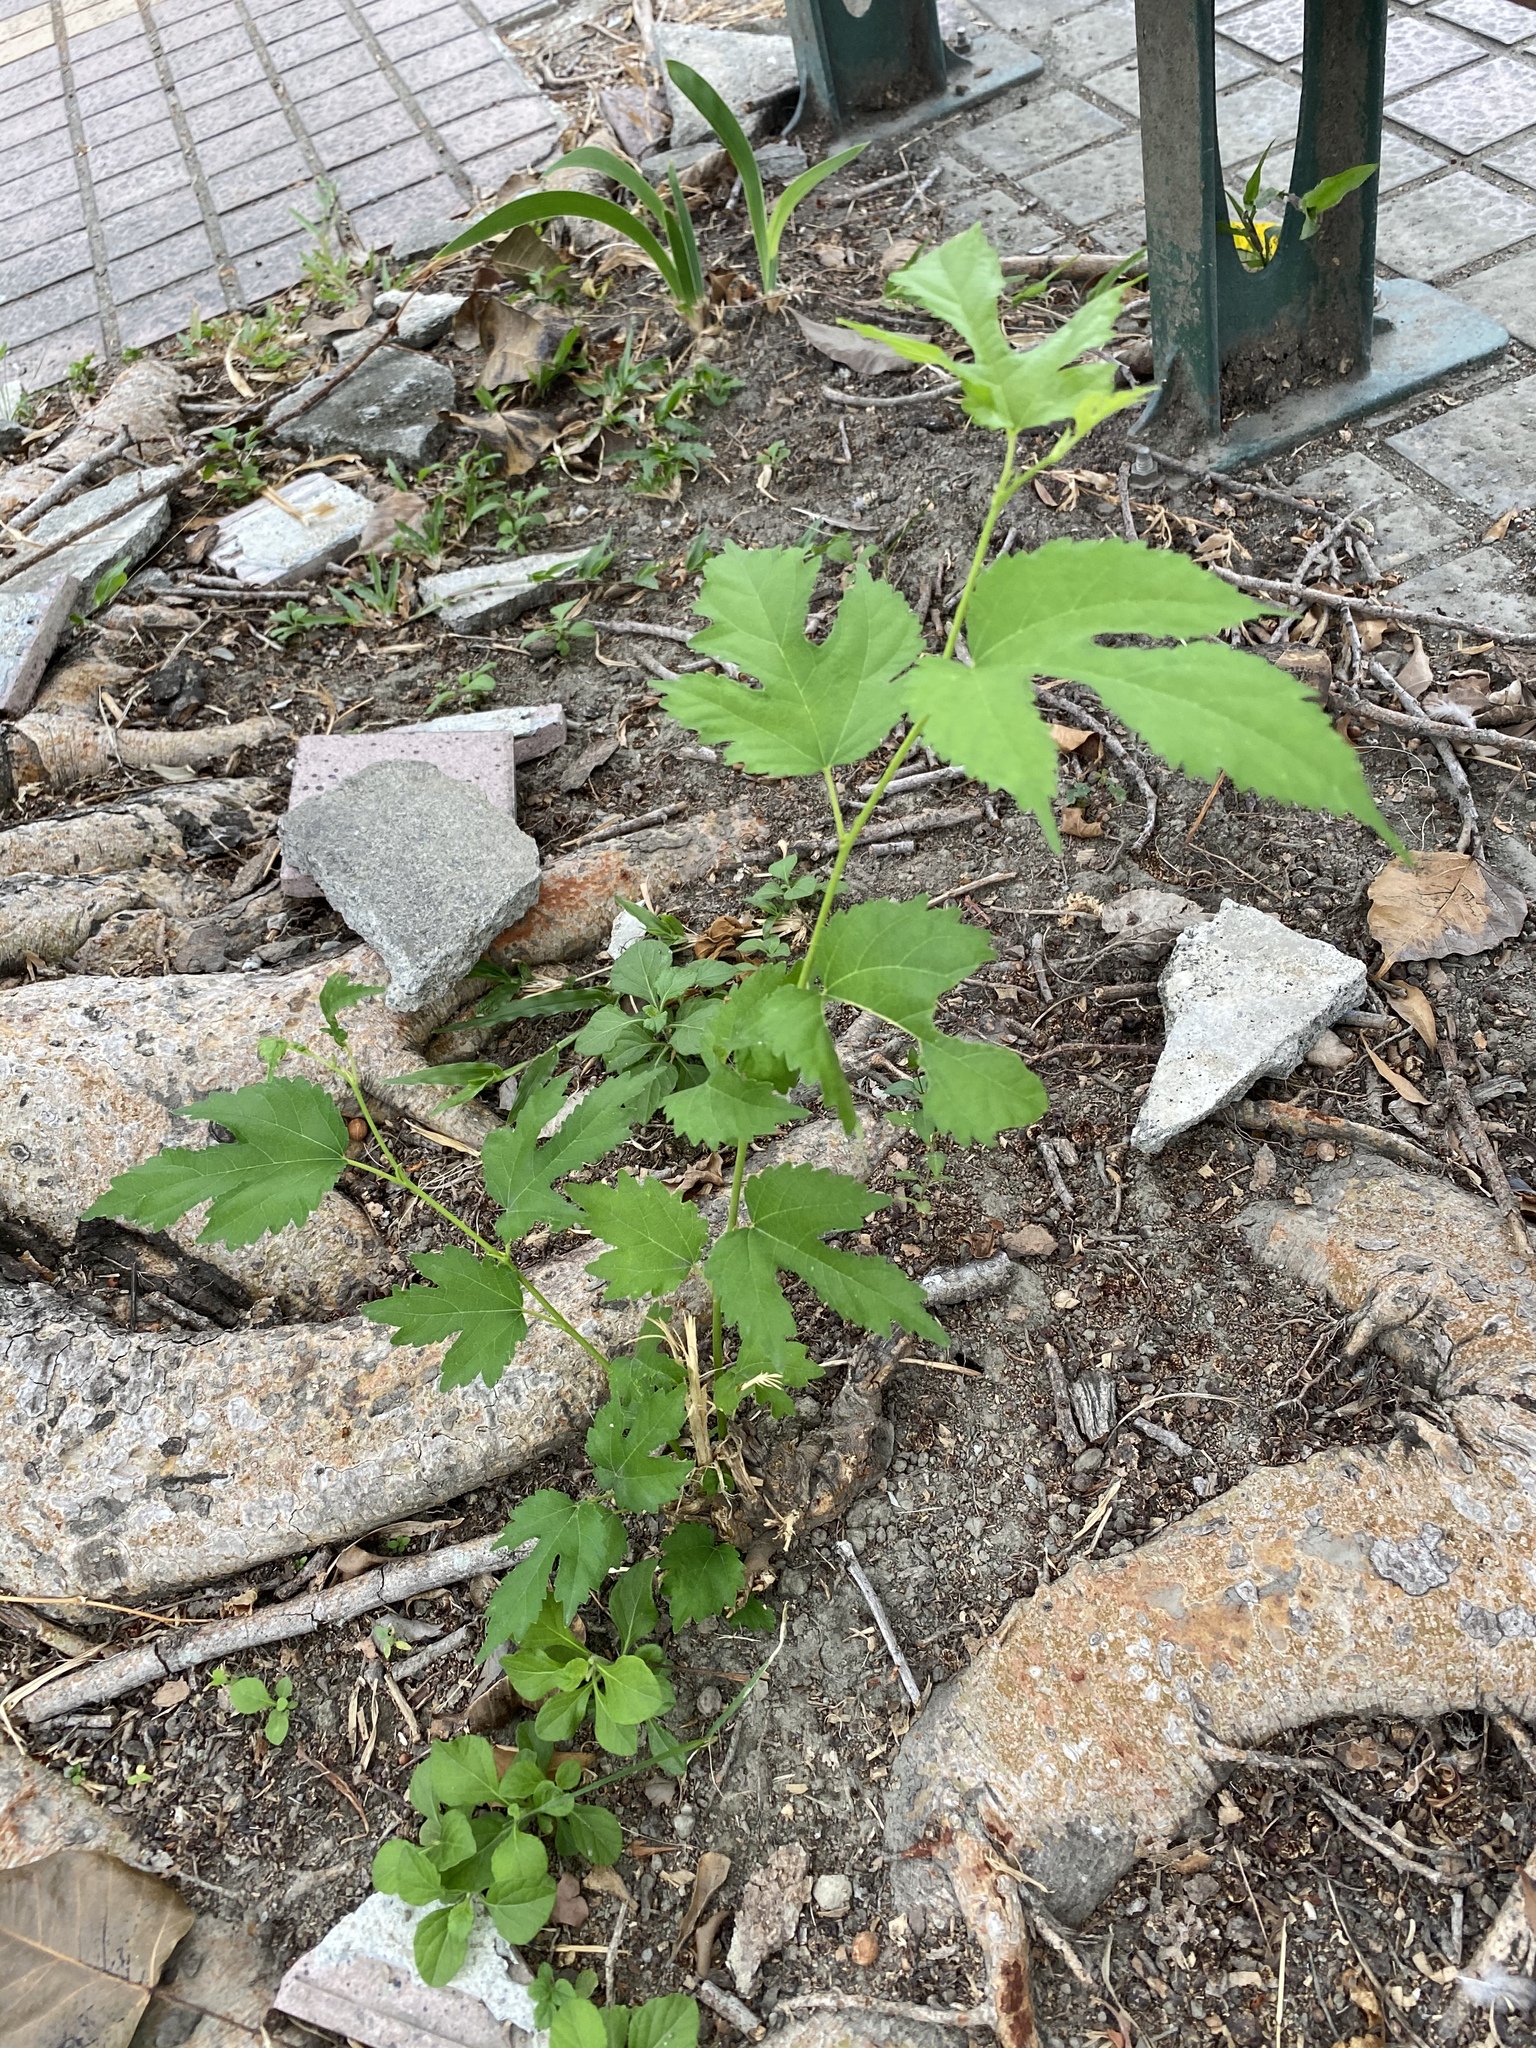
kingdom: Plantae
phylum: Tracheophyta
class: Magnoliopsida
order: Rosales
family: Moraceae
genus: Morus
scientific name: Morus indica
